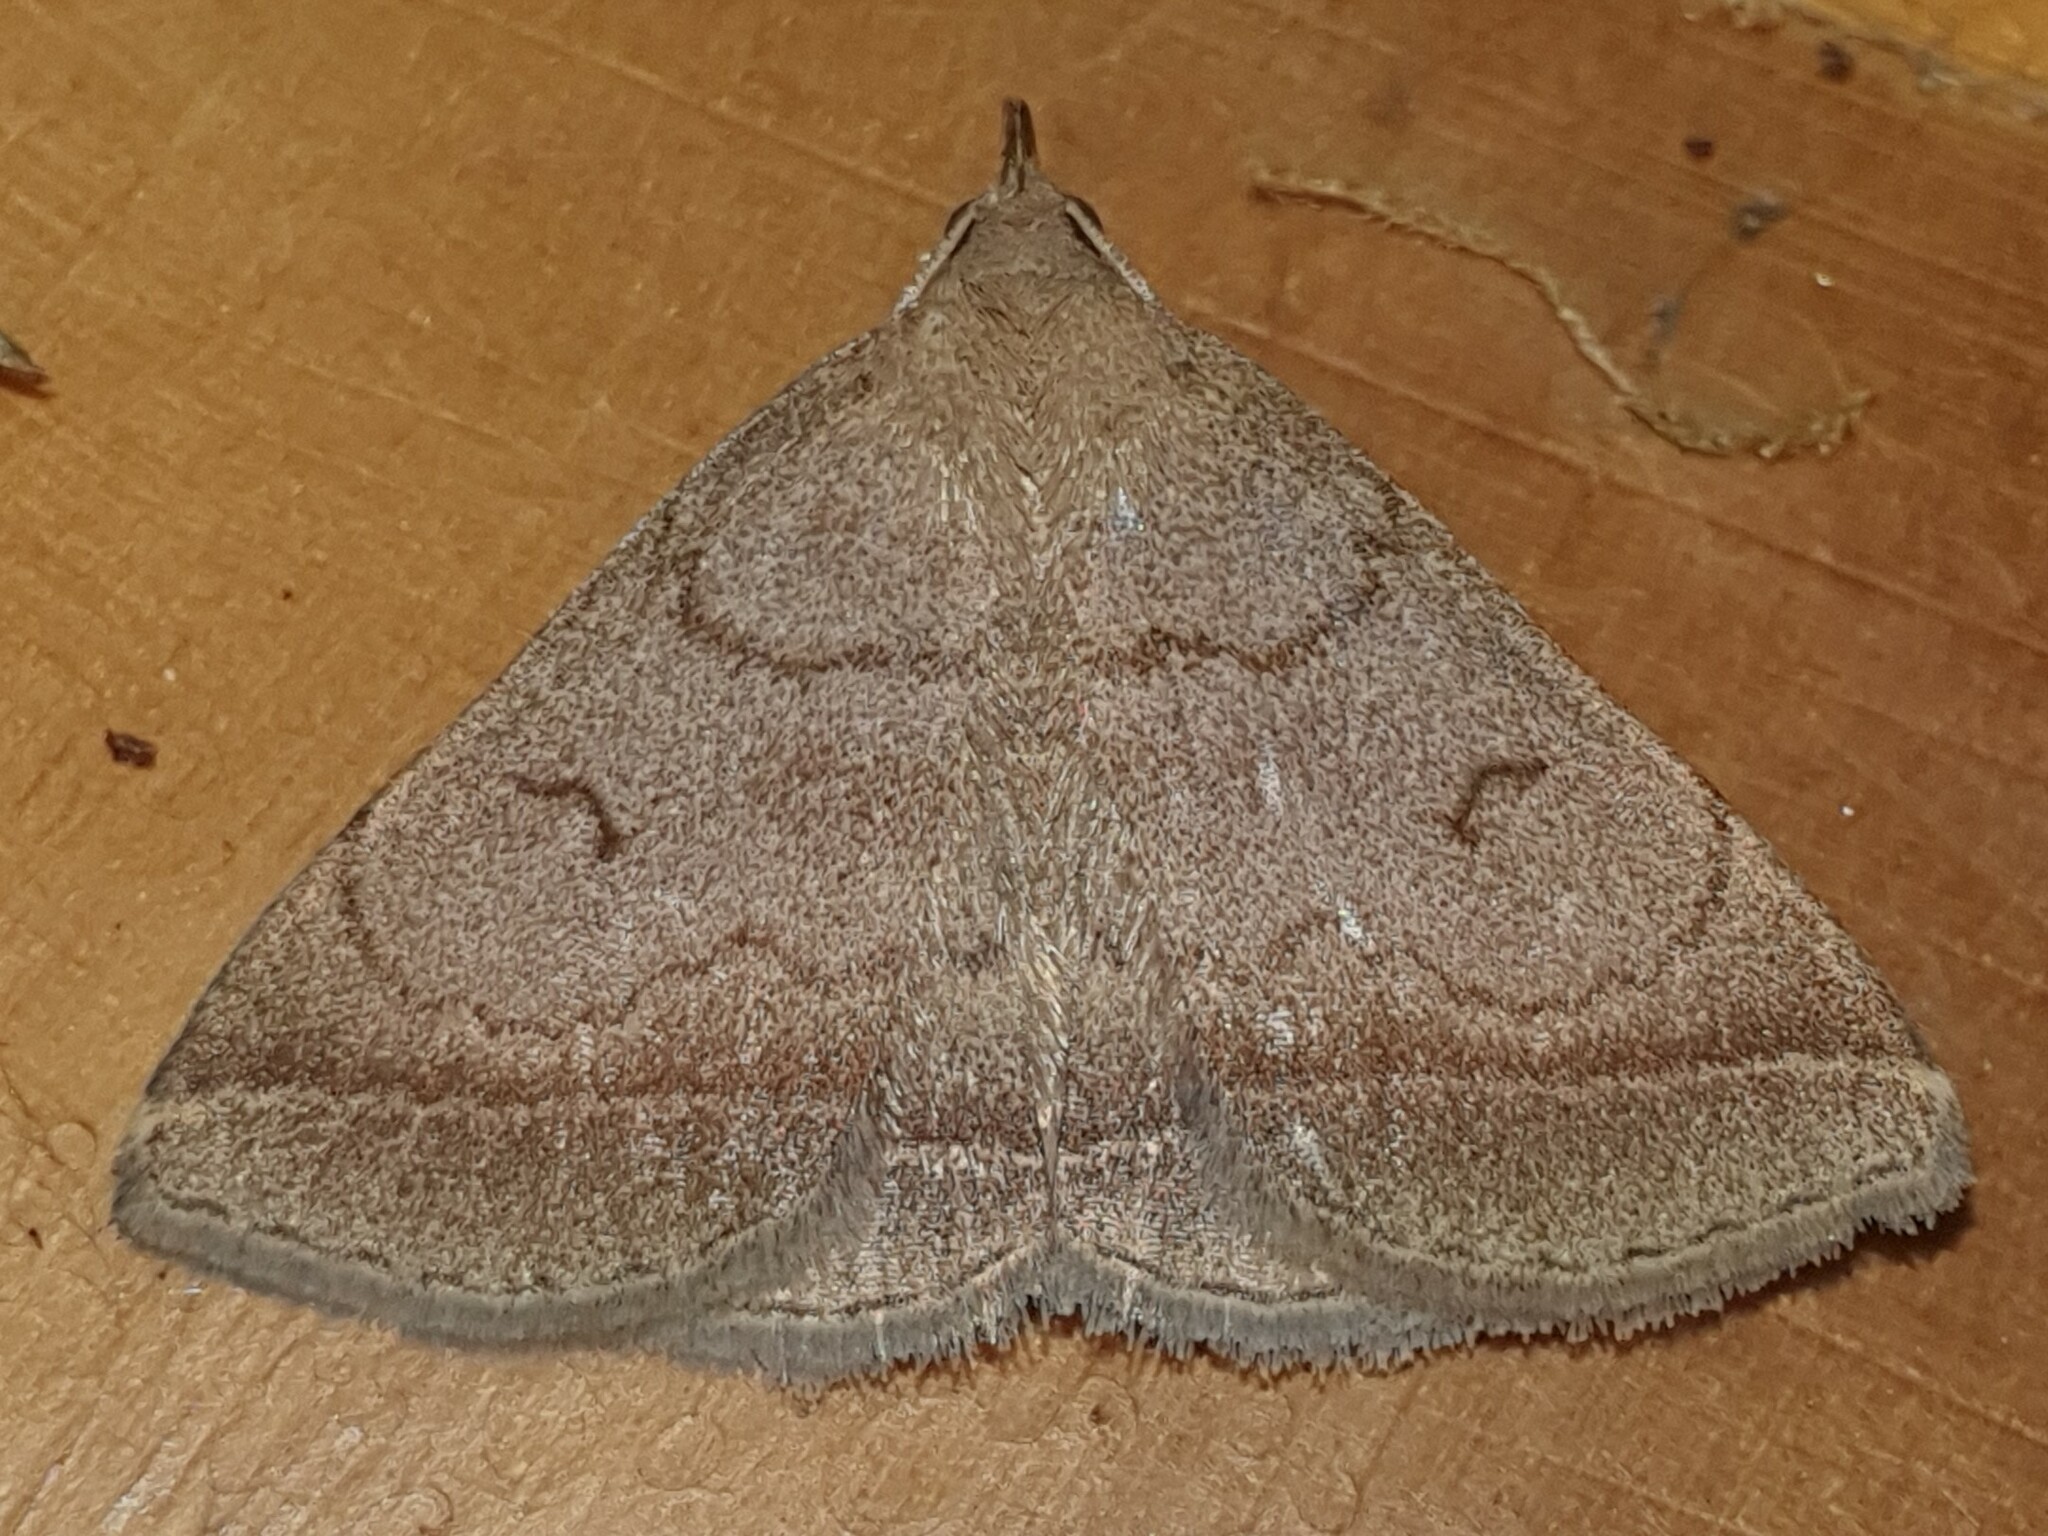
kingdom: Animalia
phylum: Arthropoda
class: Insecta
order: Lepidoptera
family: Erebidae
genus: Zanclognatha
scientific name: Zanclognatha lunalis
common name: Jubilee fan-foot
